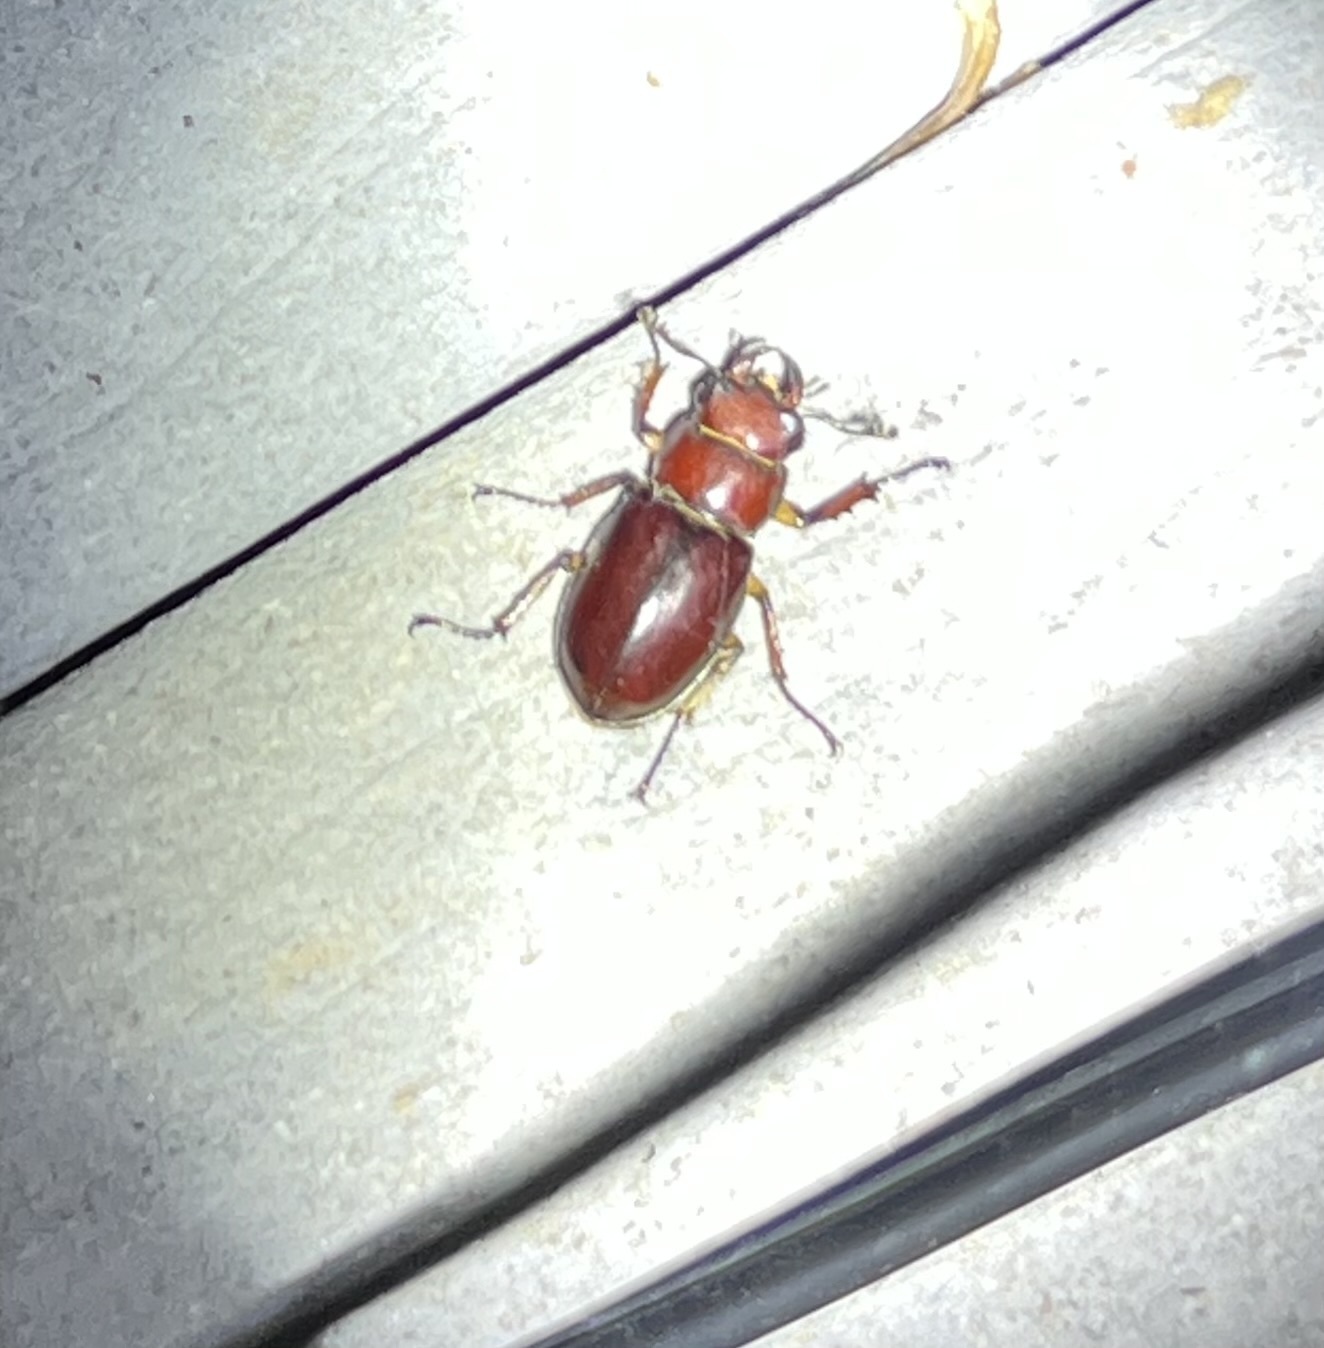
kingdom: Animalia
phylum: Arthropoda
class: Insecta
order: Coleoptera
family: Lucanidae
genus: Lucanus
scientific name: Lucanus capreolus
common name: Stag beetle
